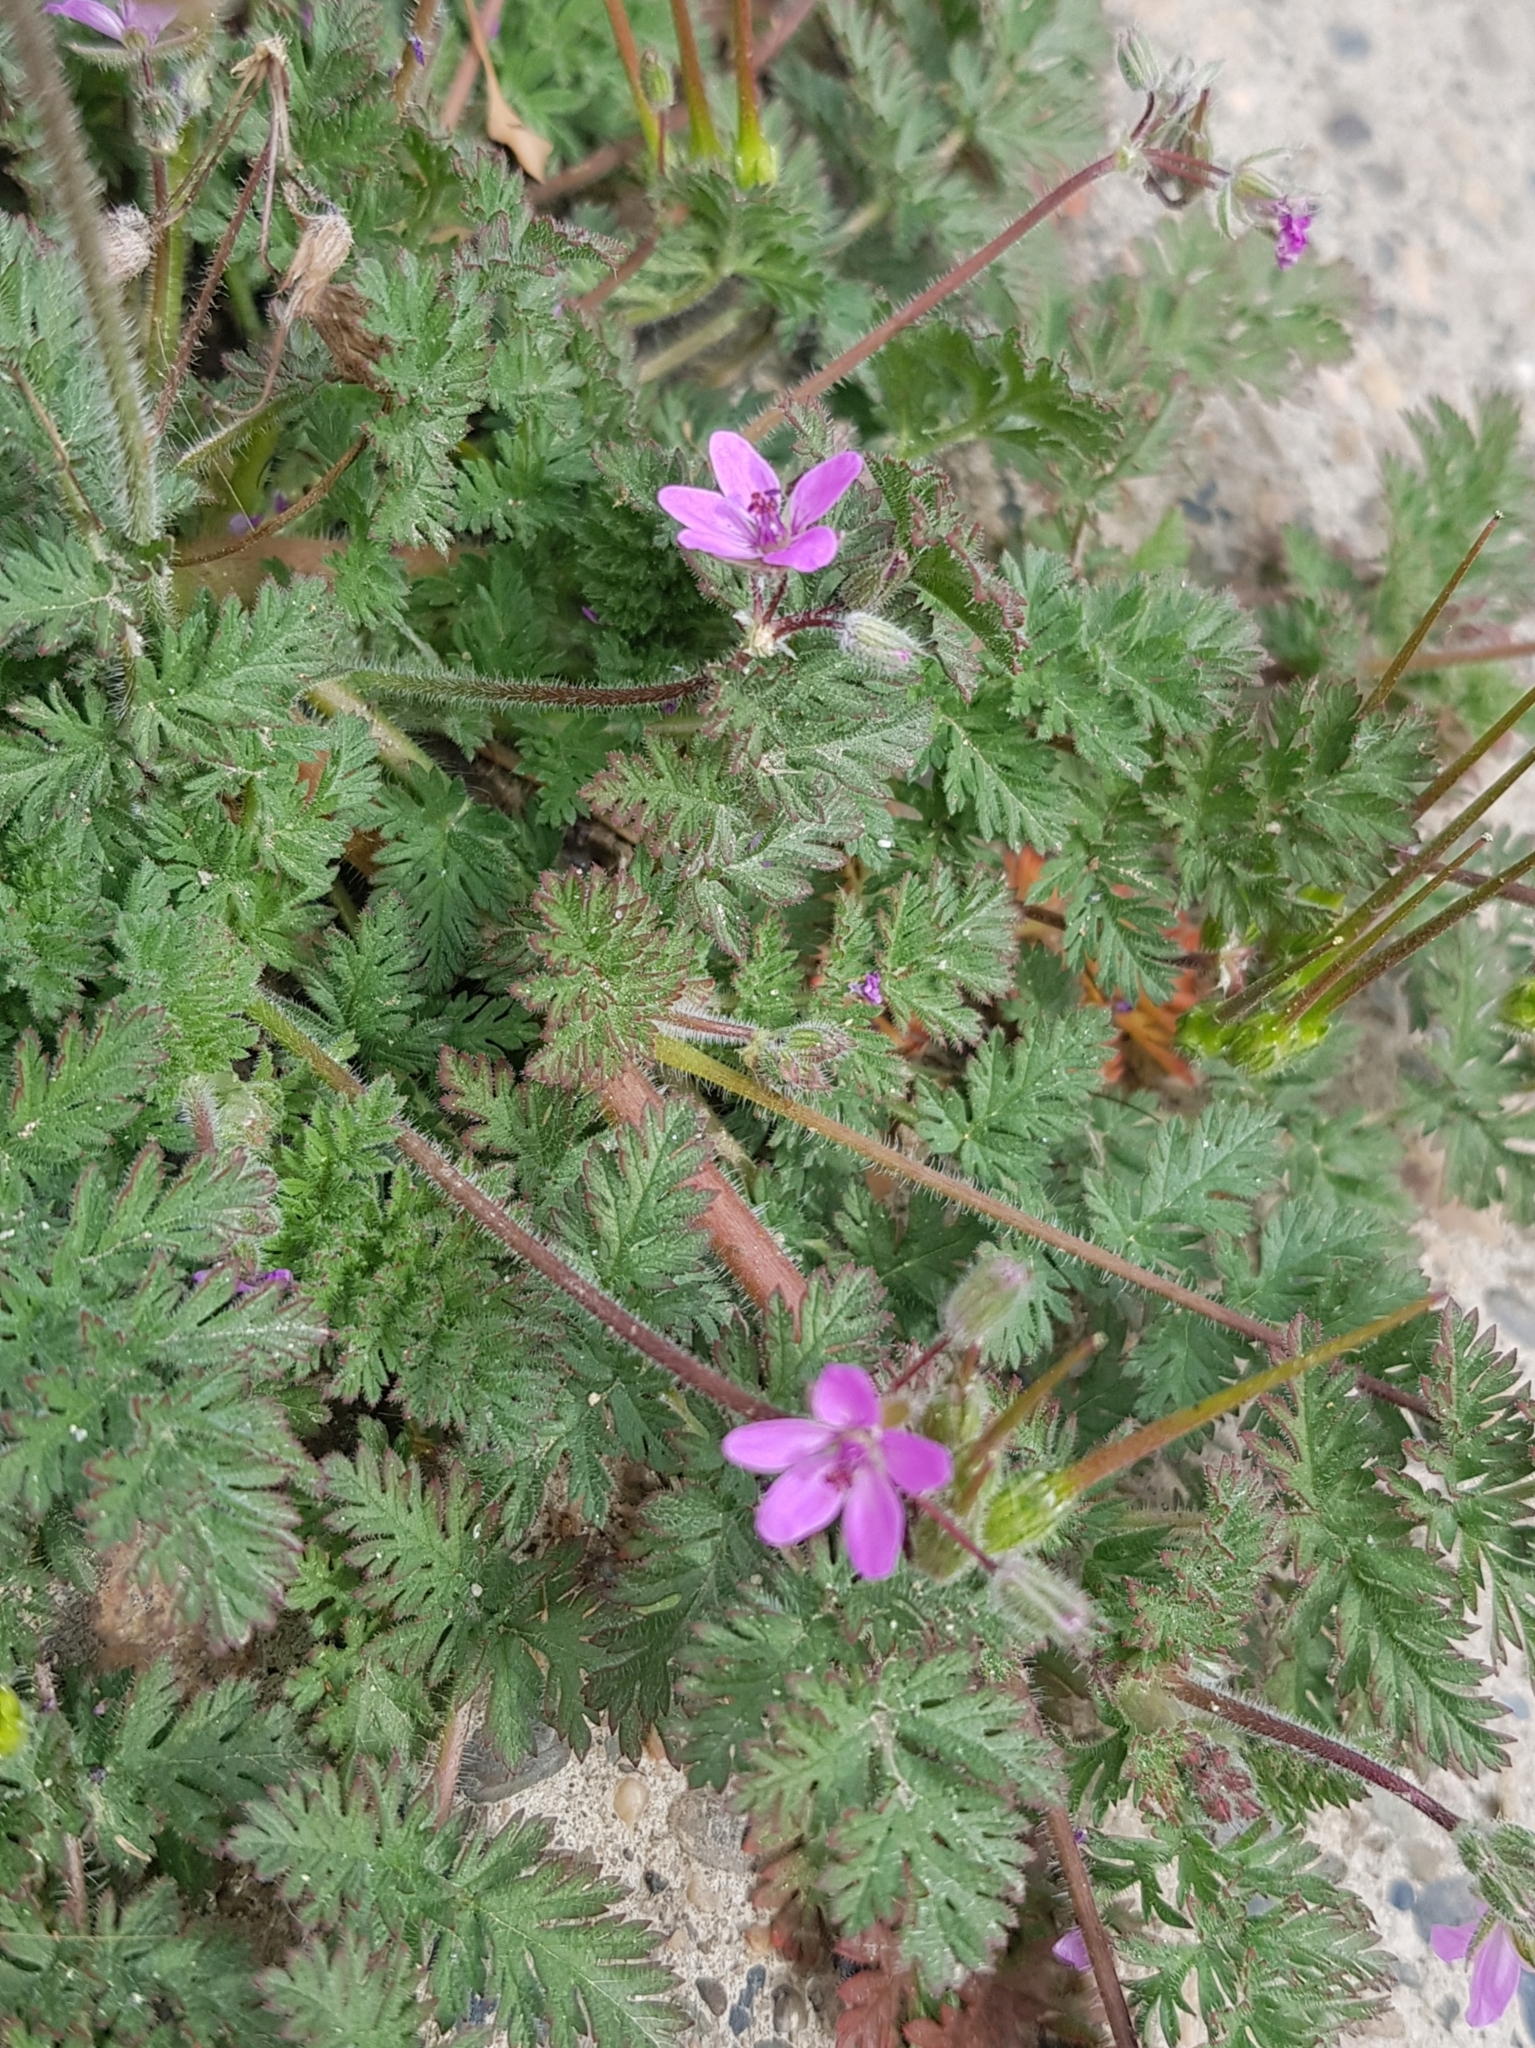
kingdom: Plantae
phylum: Tracheophyta
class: Magnoliopsida
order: Geraniales
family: Geraniaceae
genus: Erodium
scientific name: Erodium cicutarium
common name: Common stork's-bill
